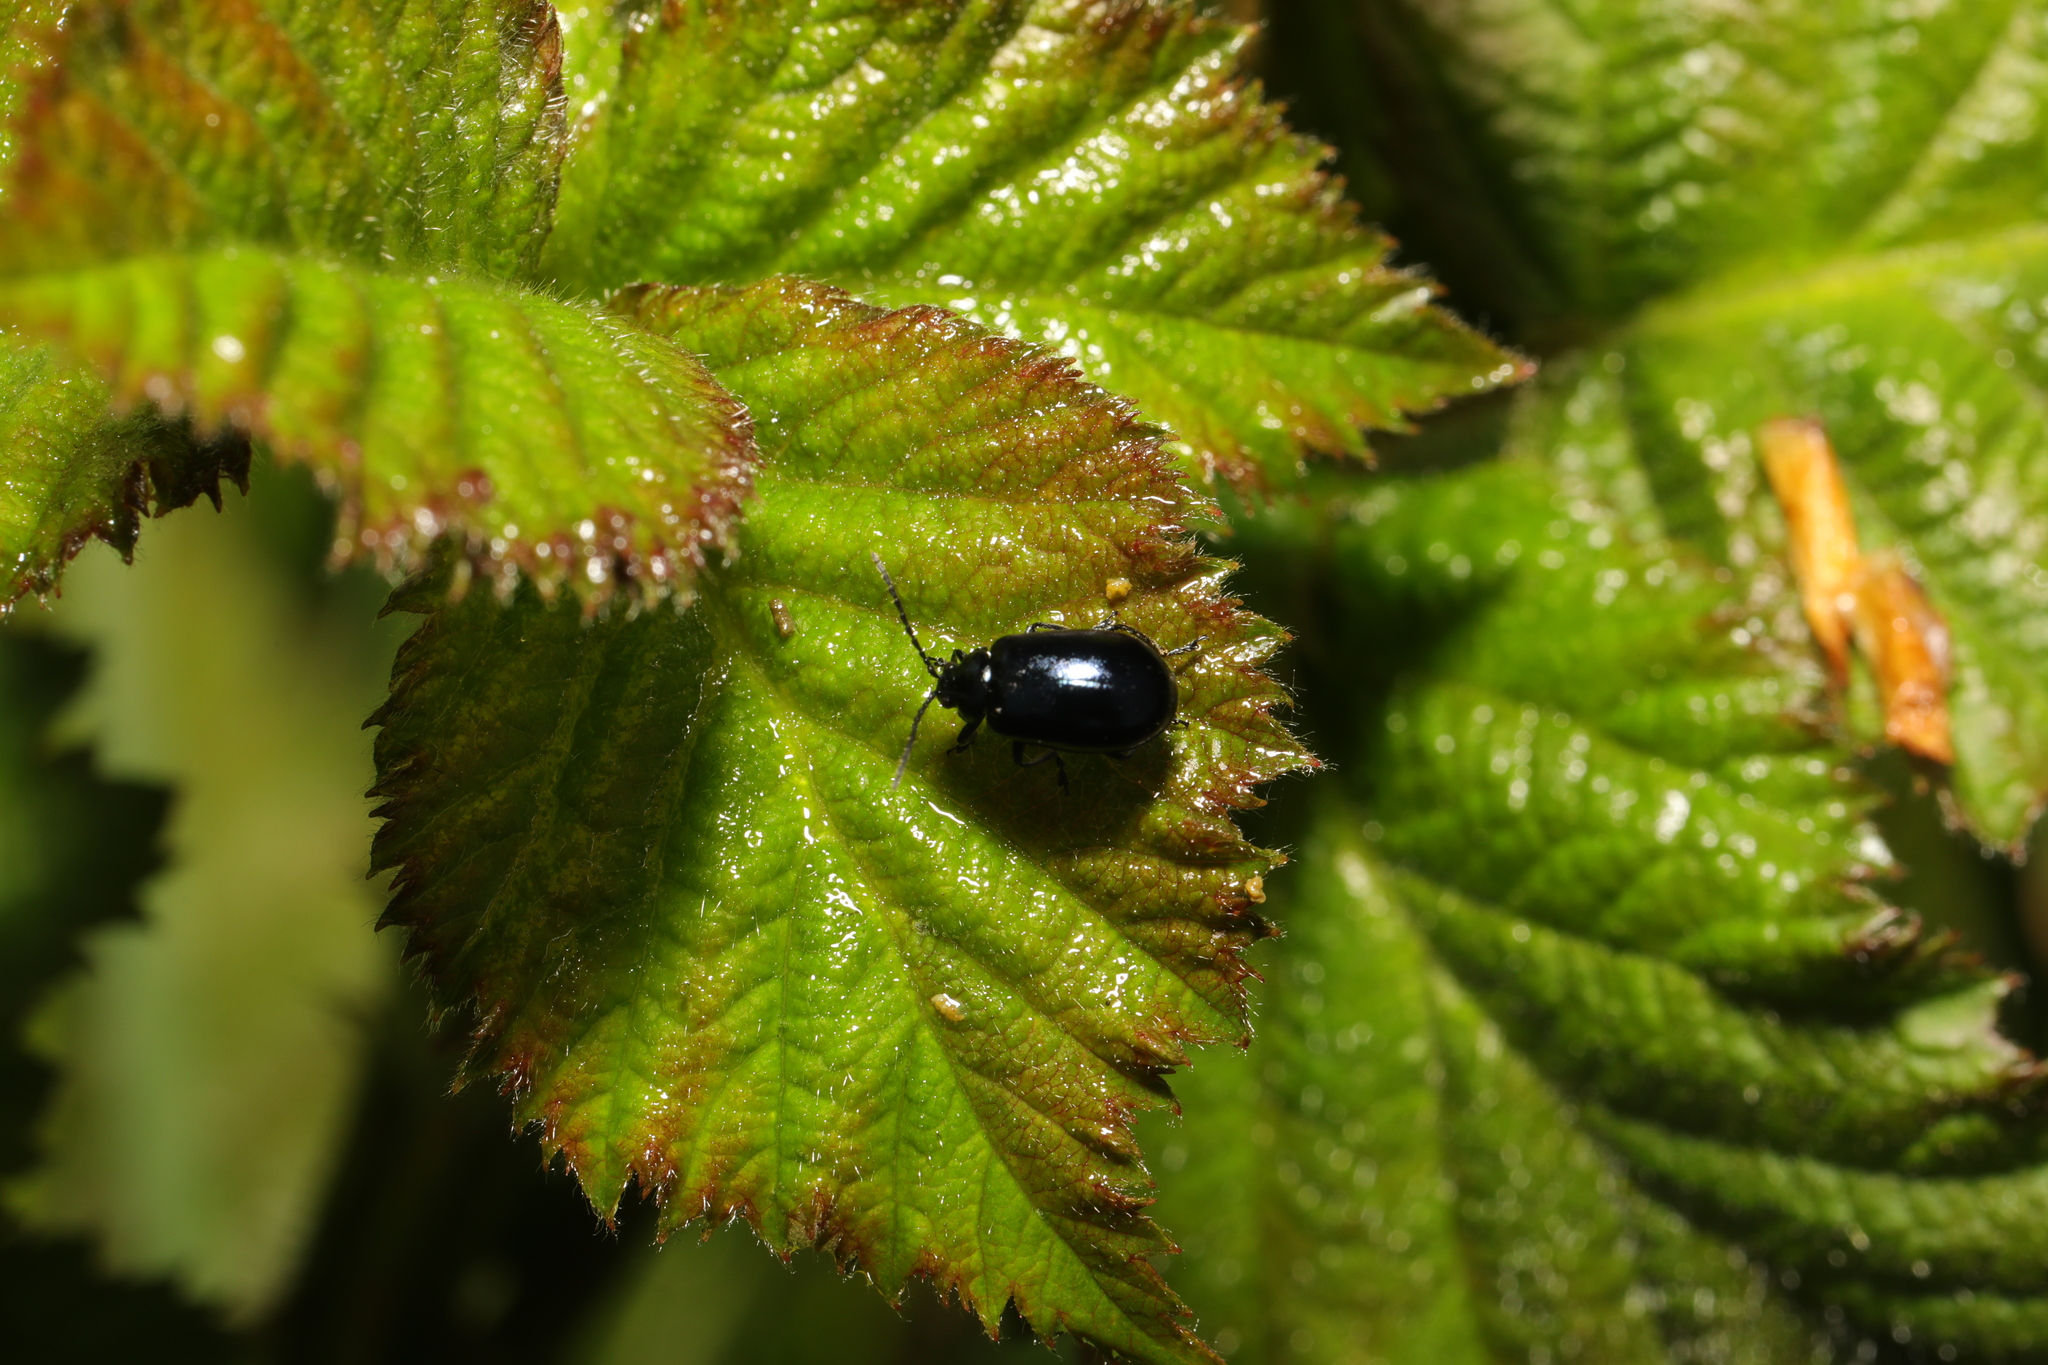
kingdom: Animalia
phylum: Arthropoda
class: Insecta
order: Coleoptera
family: Chrysomelidae
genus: Agelastica
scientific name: Agelastica alni
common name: Alder leaf beetle
